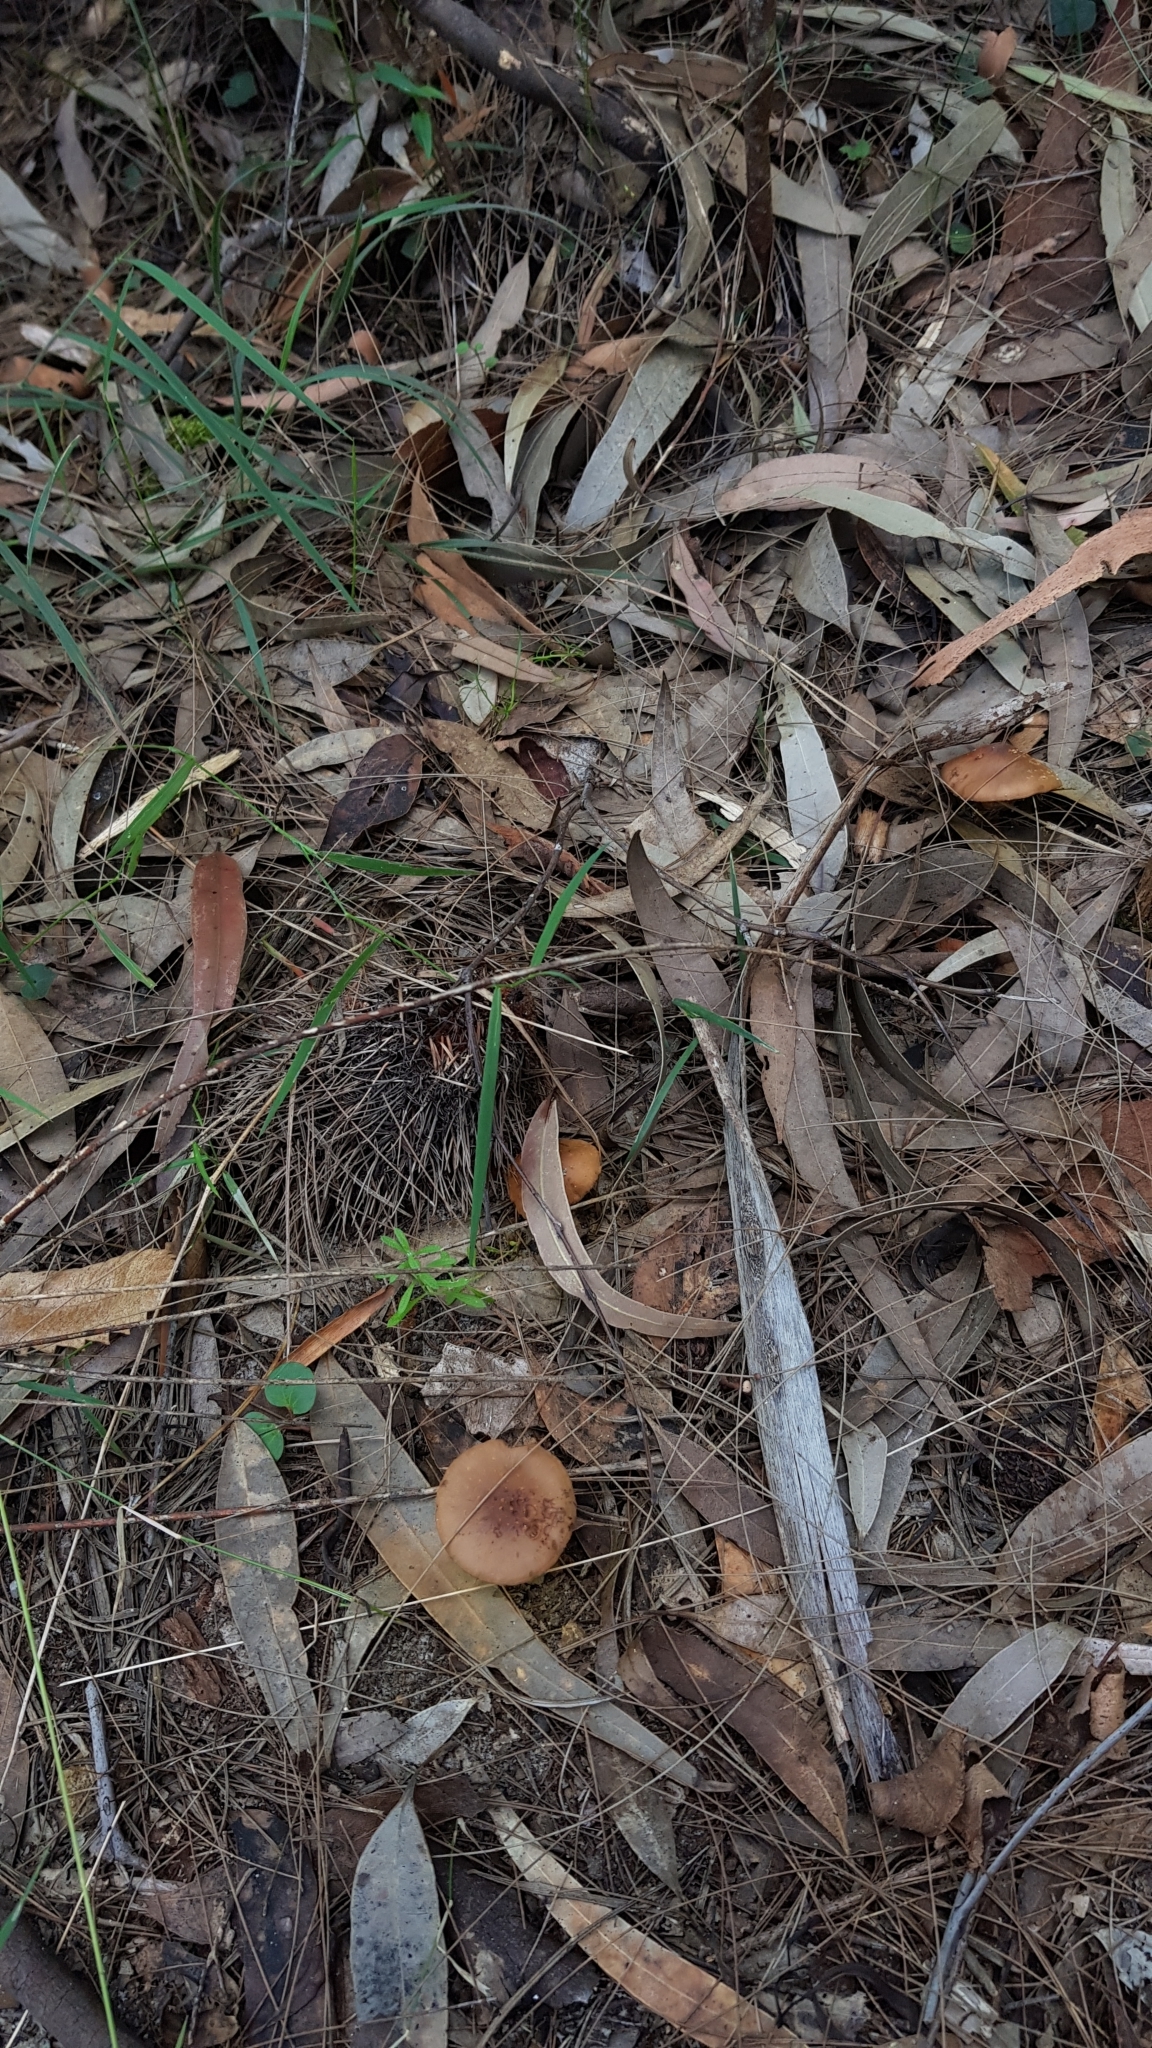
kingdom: Fungi
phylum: Basidiomycota
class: Agaricomycetes
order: Agaricales
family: Bolbitiaceae
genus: Descolea
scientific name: Descolea recedens
